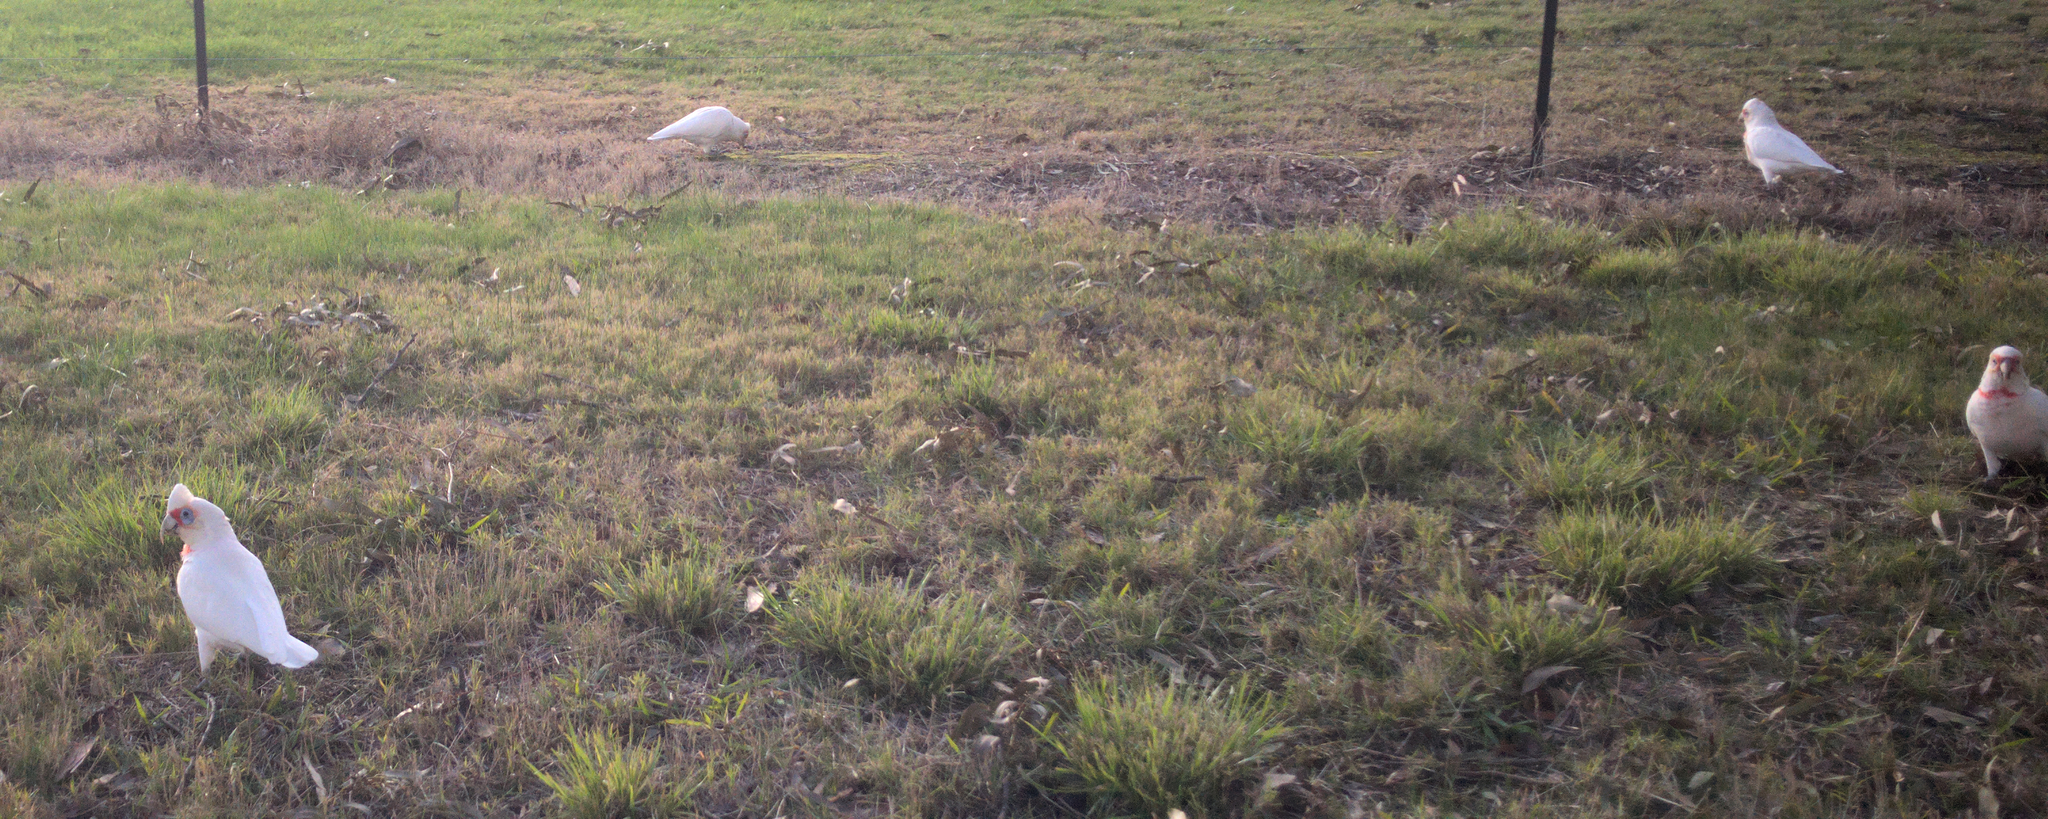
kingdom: Animalia
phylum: Chordata
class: Aves
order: Psittaciformes
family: Psittacidae
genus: Cacatua
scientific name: Cacatua tenuirostris
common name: Long-billed corella
